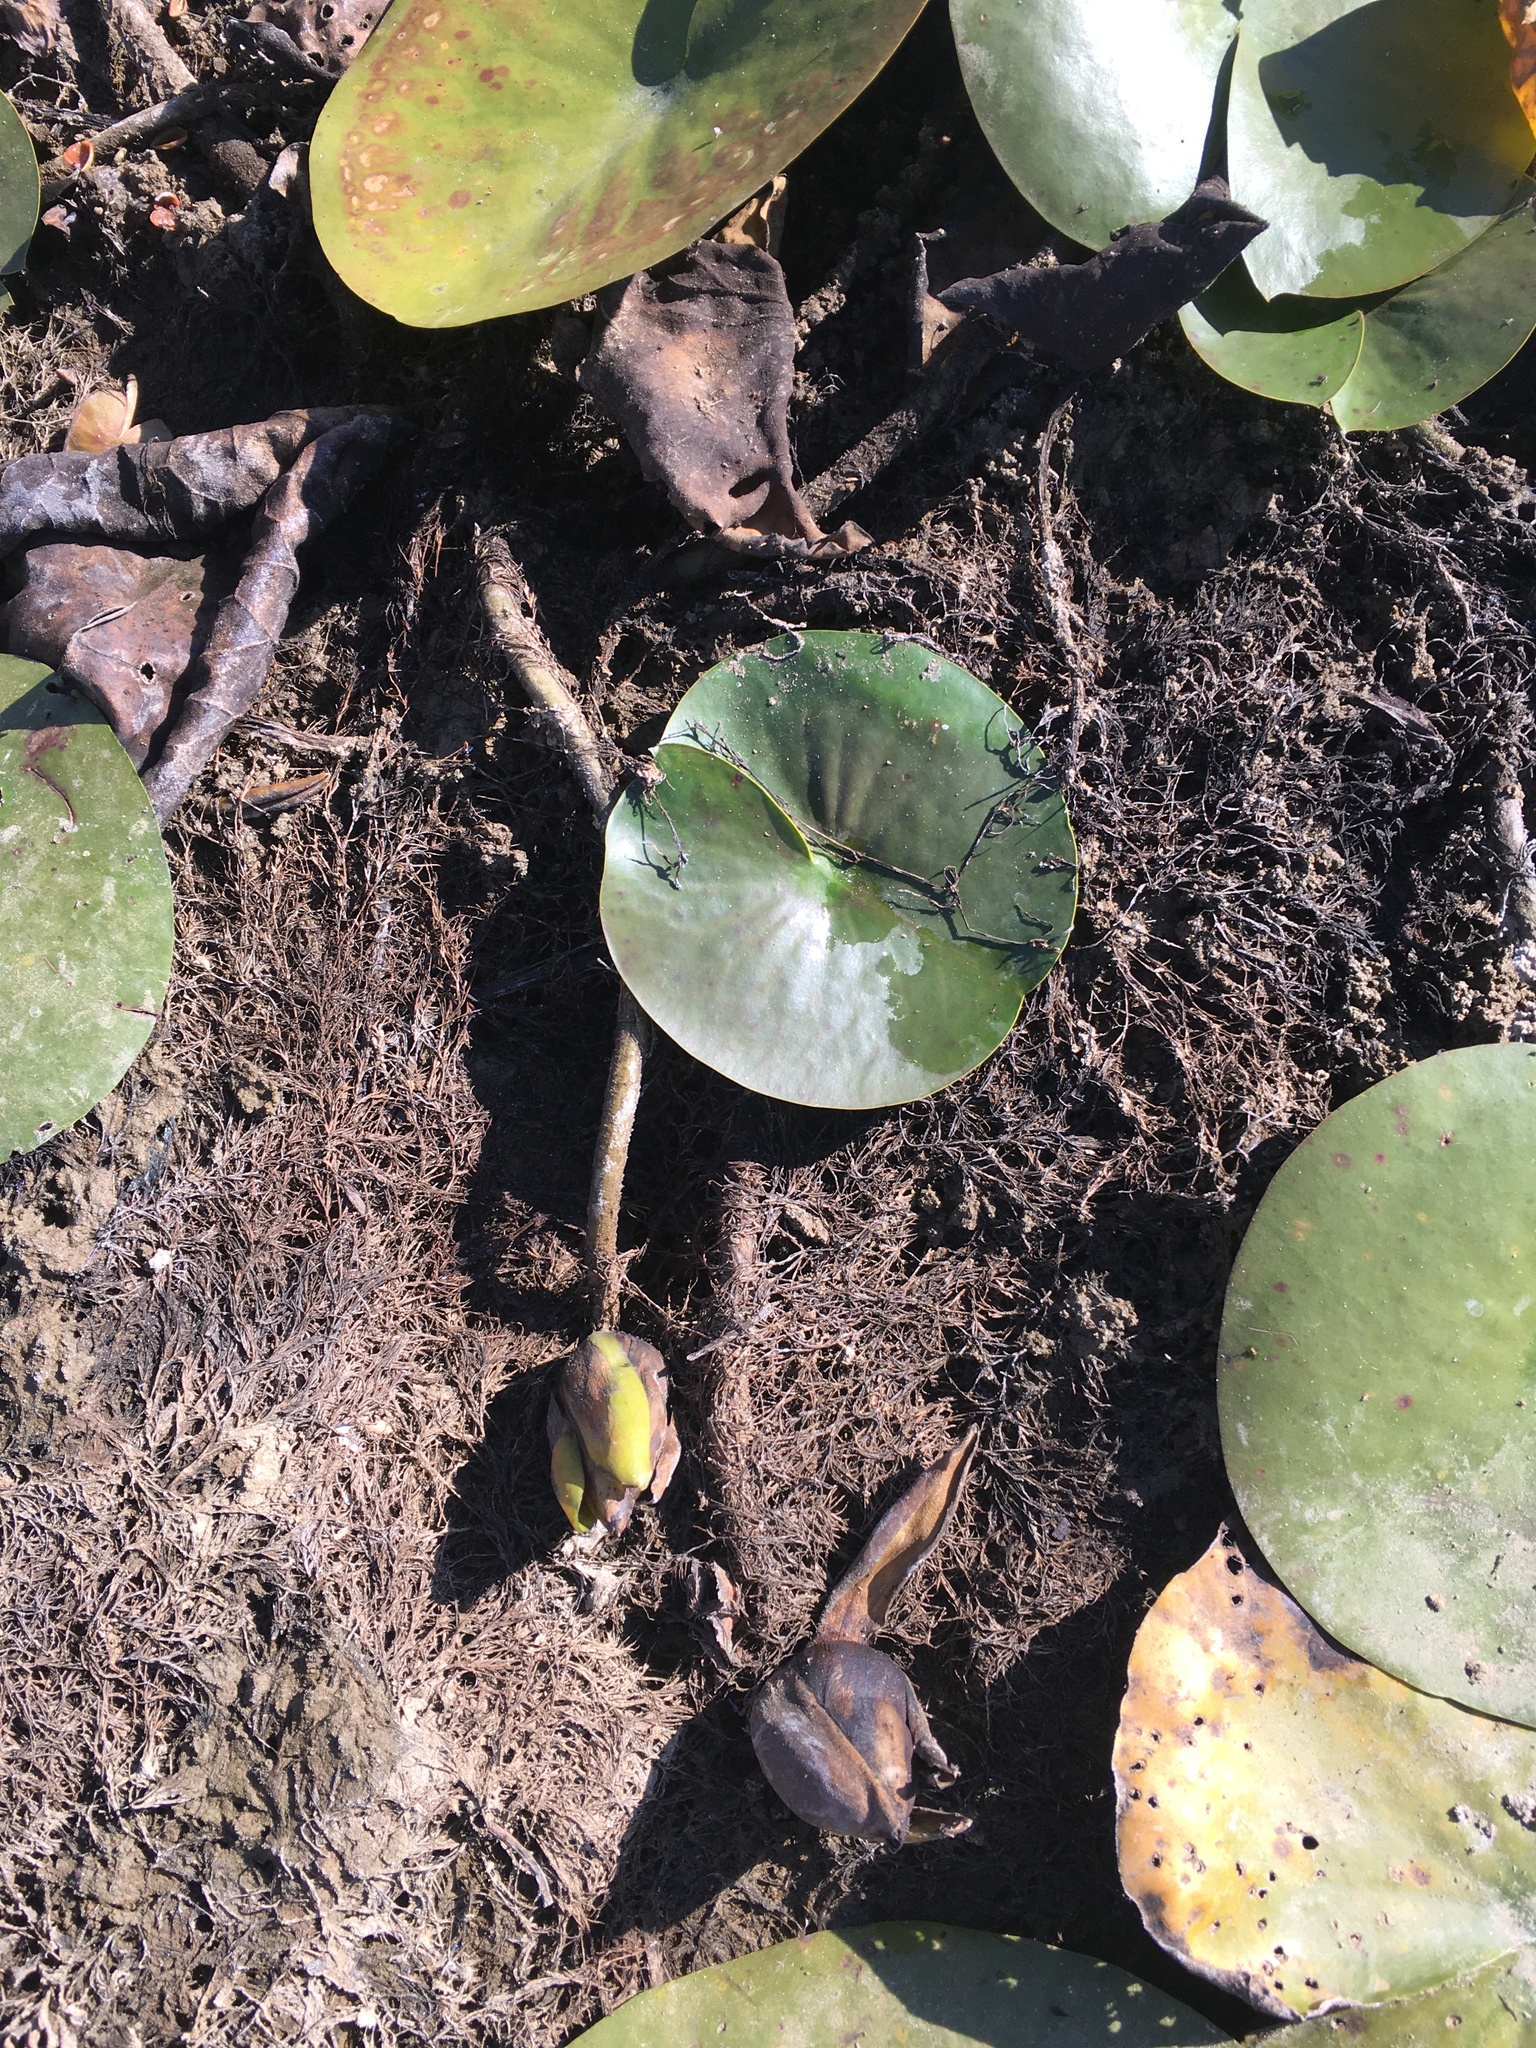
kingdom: Plantae
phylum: Tracheophyta
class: Magnoliopsida
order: Nymphaeales
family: Nymphaeaceae
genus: Nymphaea
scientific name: Nymphaea odorata
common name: Fragrant water-lily
